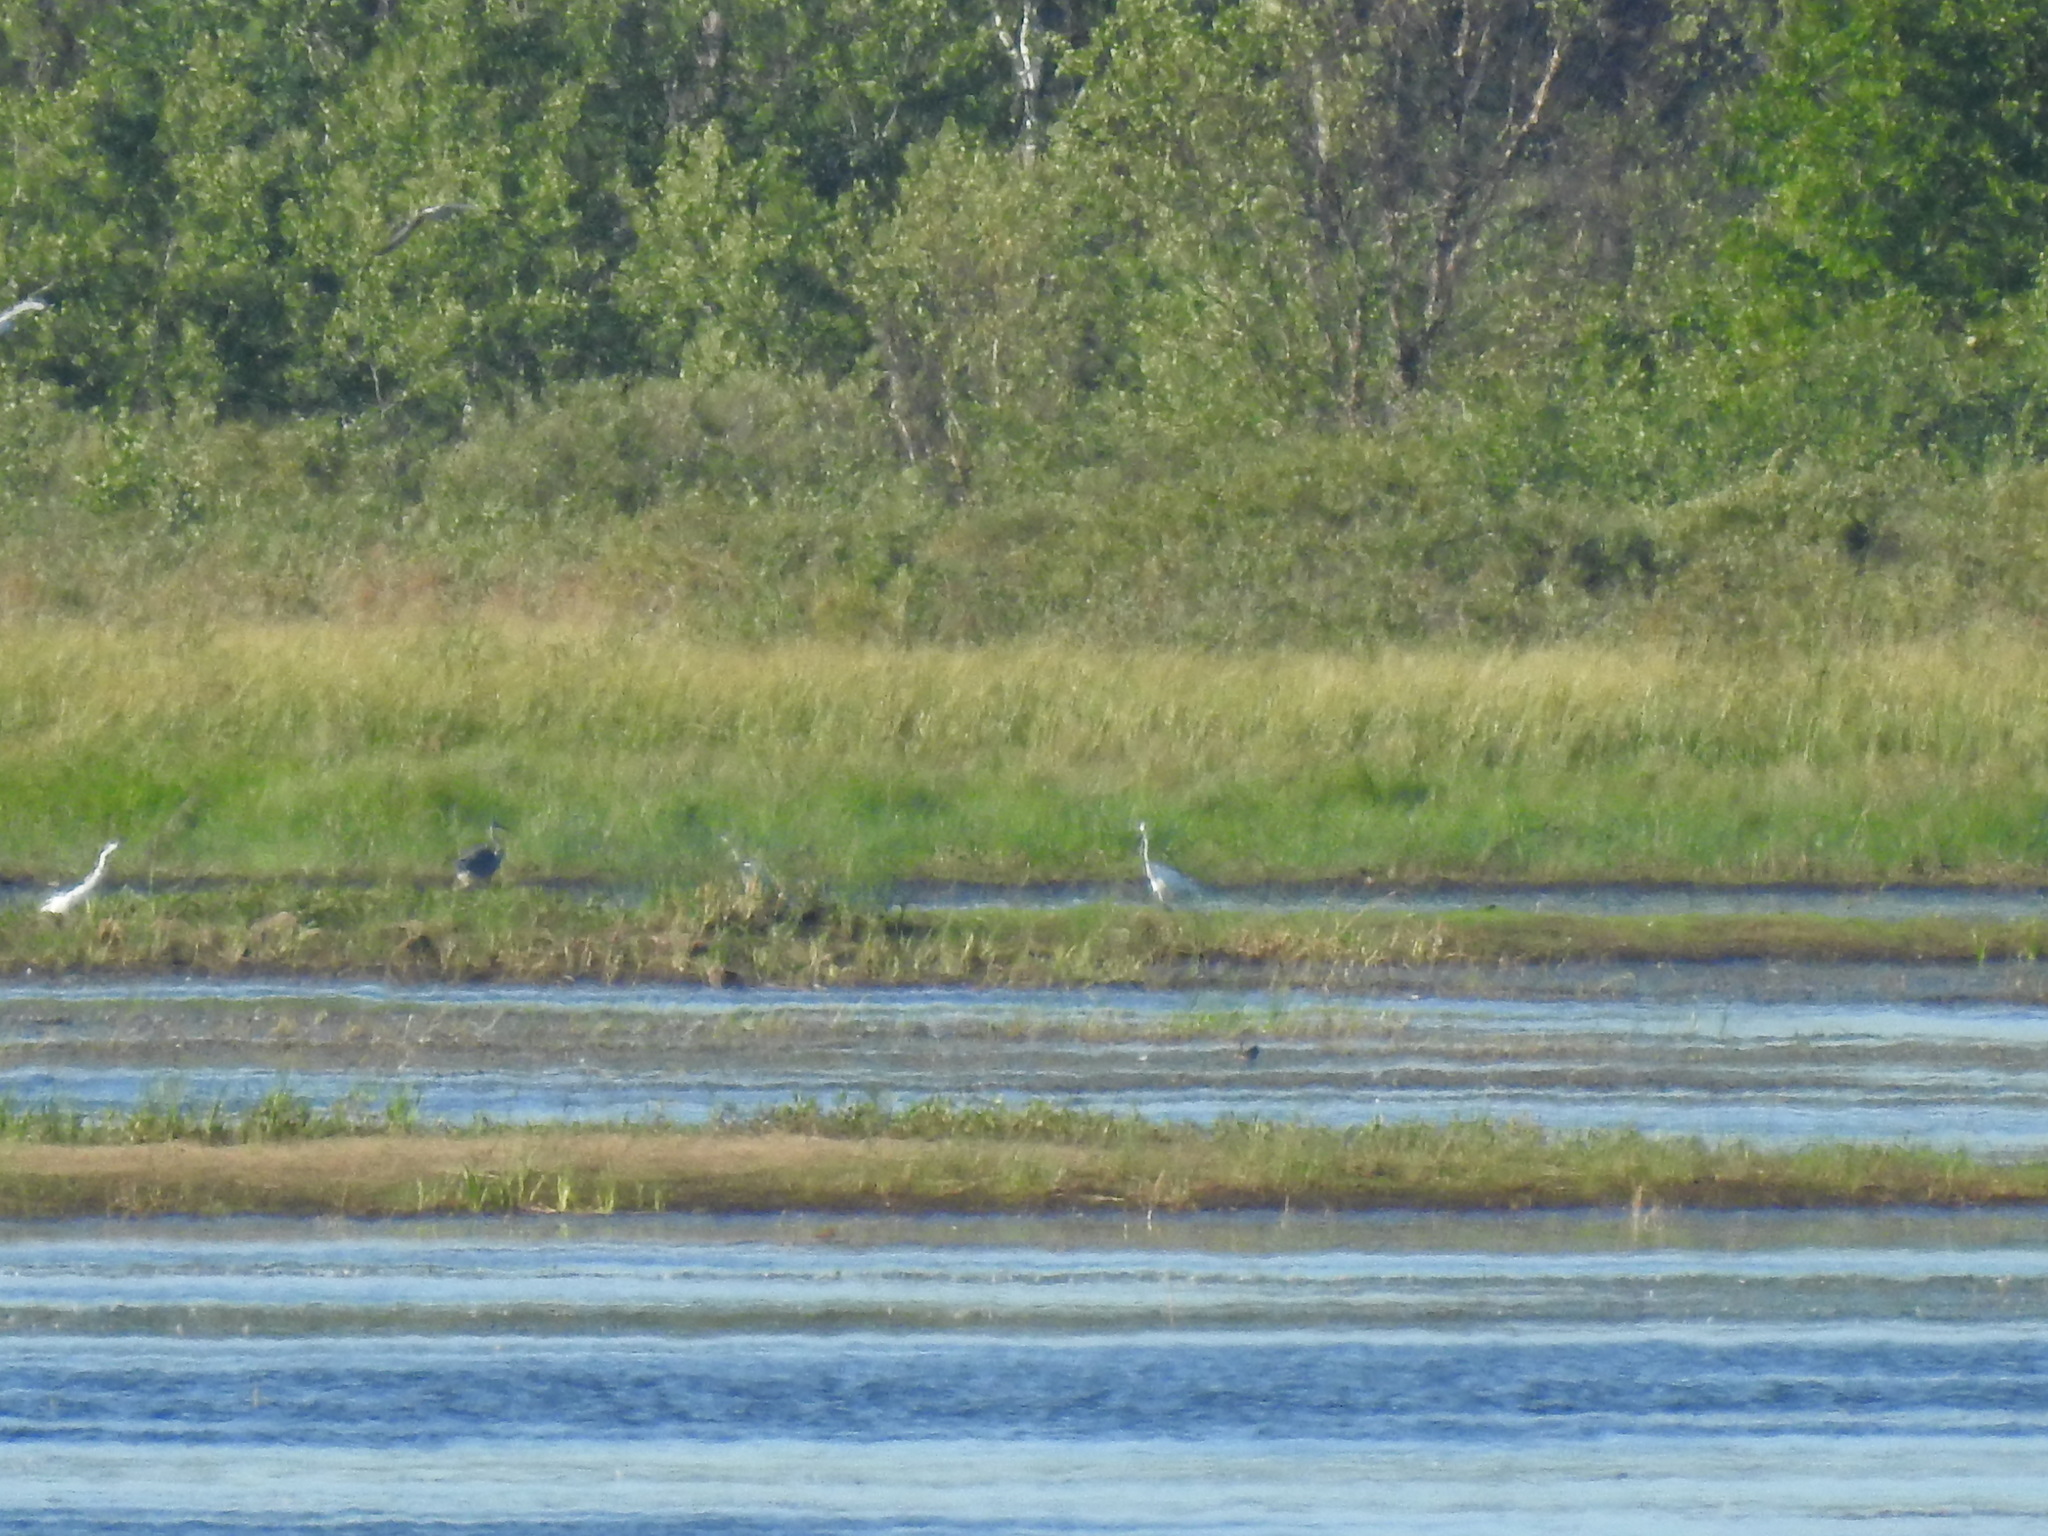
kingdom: Animalia
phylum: Chordata
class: Aves
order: Pelecaniformes
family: Ardeidae
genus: Ardea
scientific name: Ardea alba
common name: Great egret
